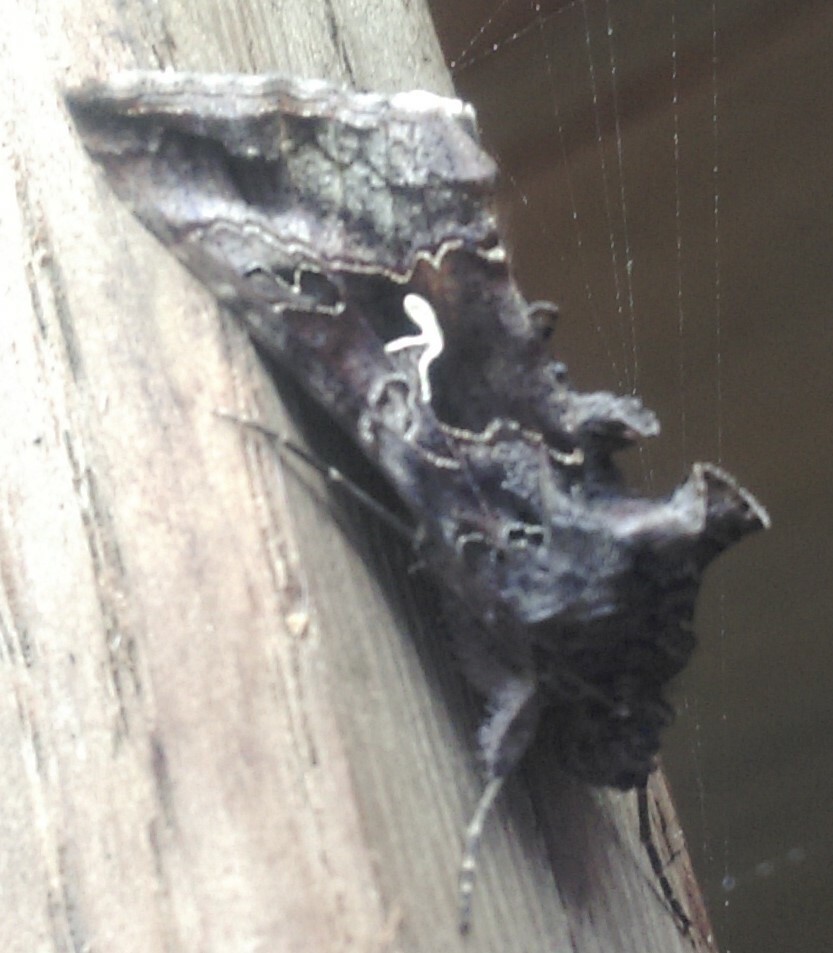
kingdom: Animalia
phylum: Arthropoda
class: Insecta
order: Lepidoptera
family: Noctuidae
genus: Autographa
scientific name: Autographa gamma
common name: Silver y
